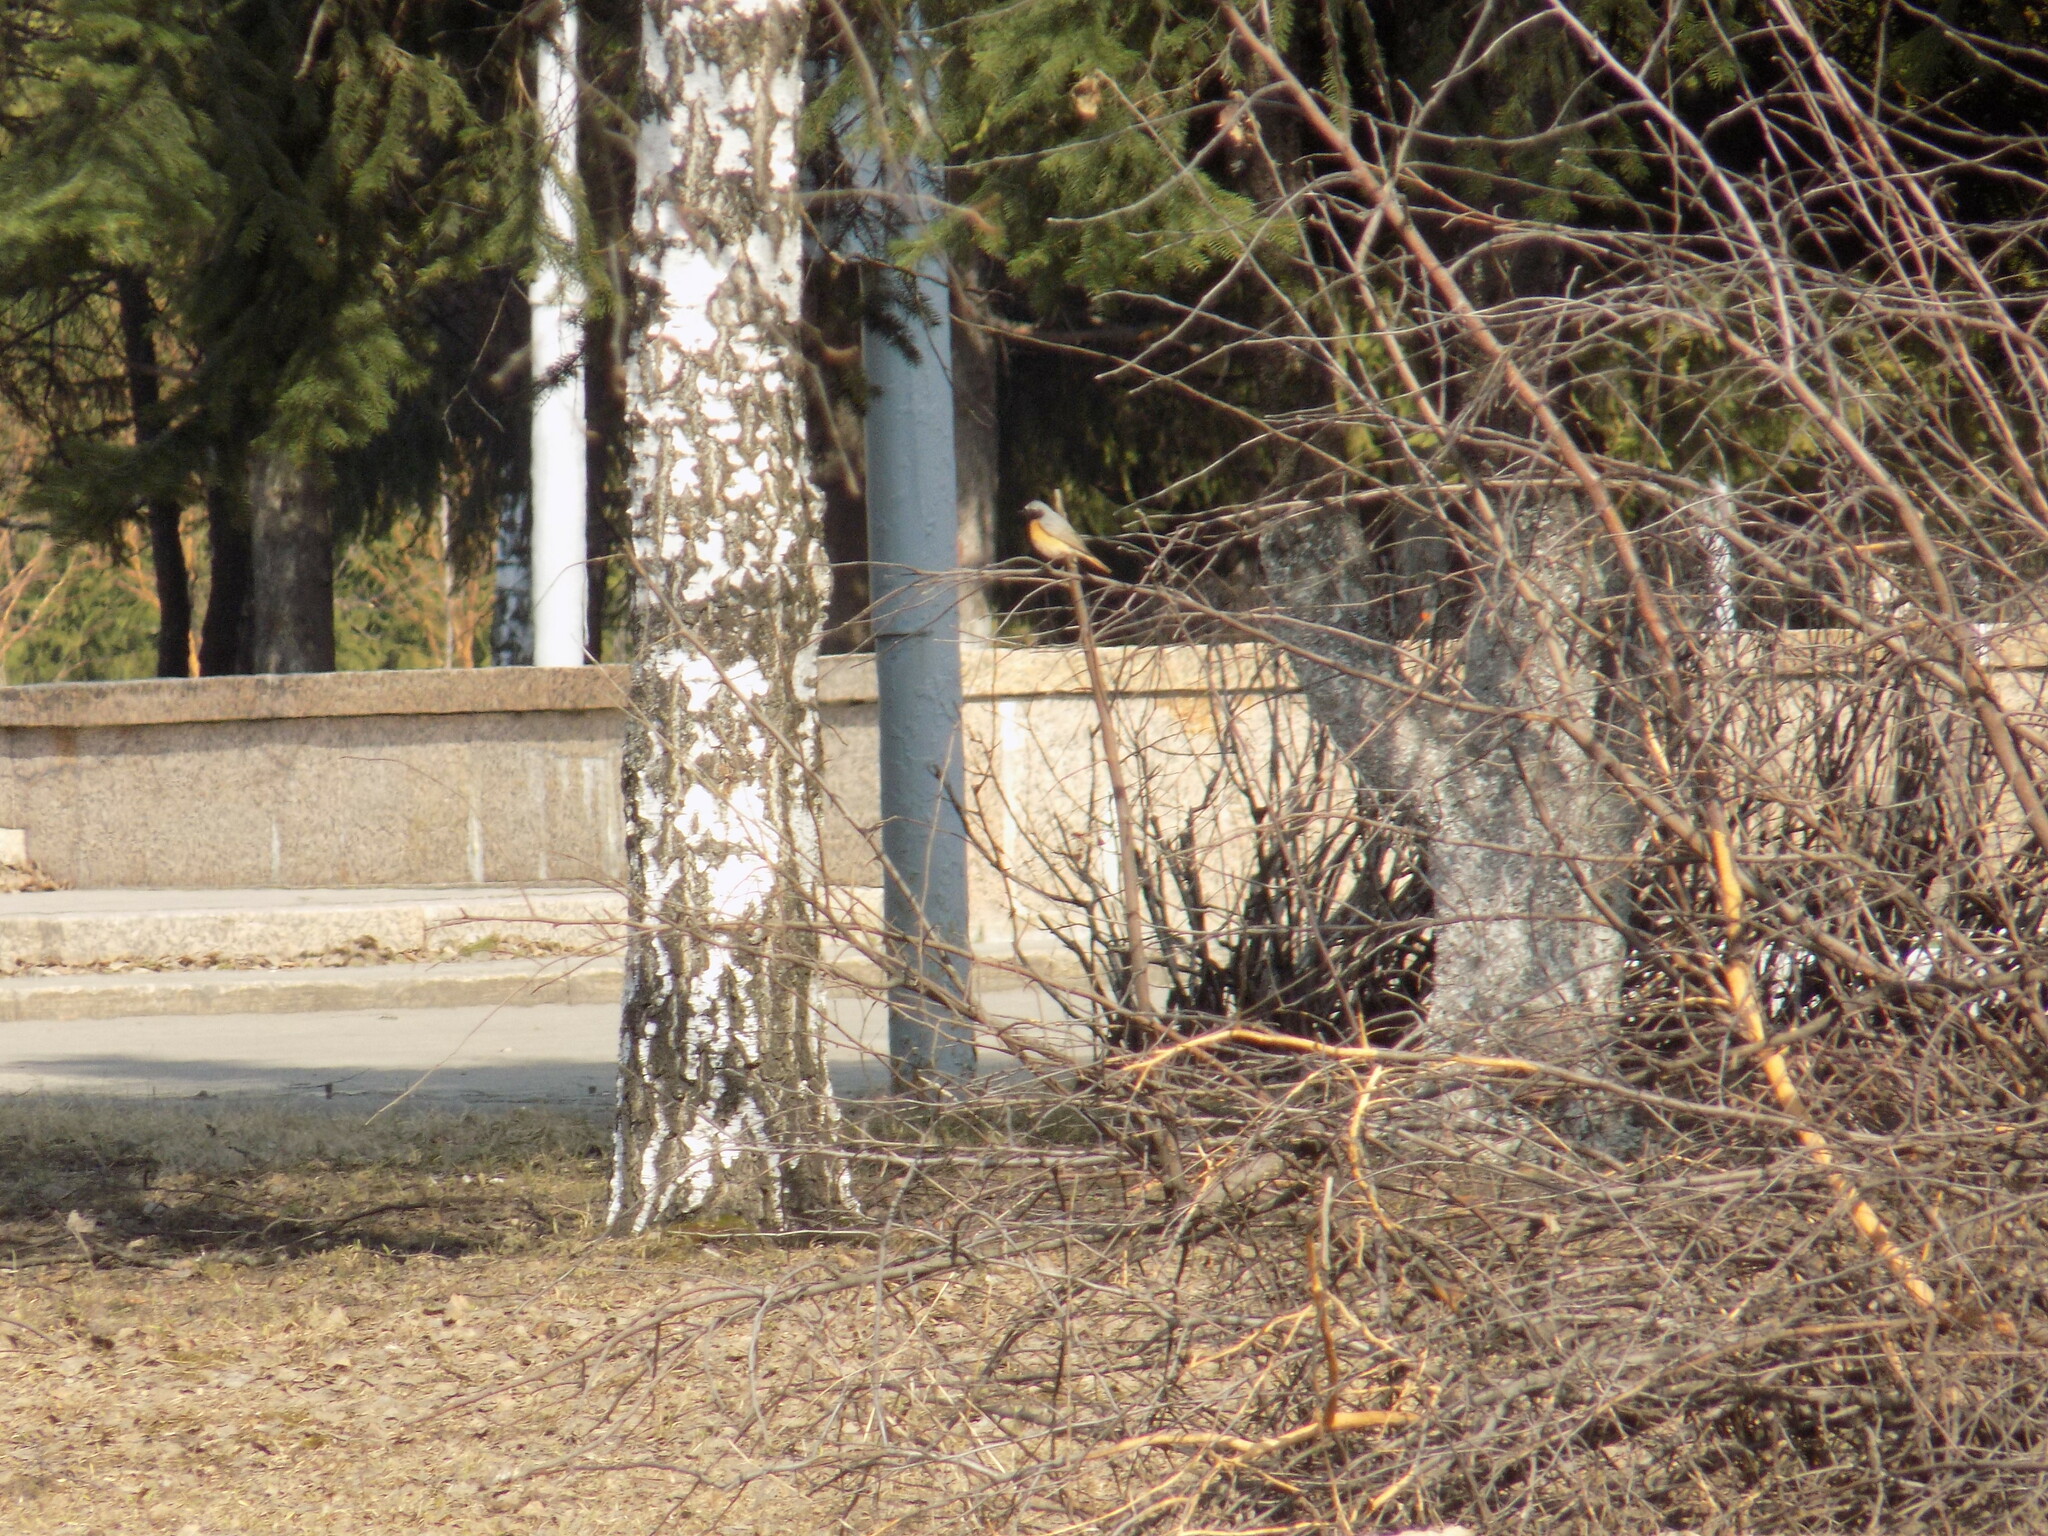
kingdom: Animalia
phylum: Chordata
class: Aves
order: Passeriformes
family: Muscicapidae
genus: Phoenicurus
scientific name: Phoenicurus phoenicurus
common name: Common redstart
